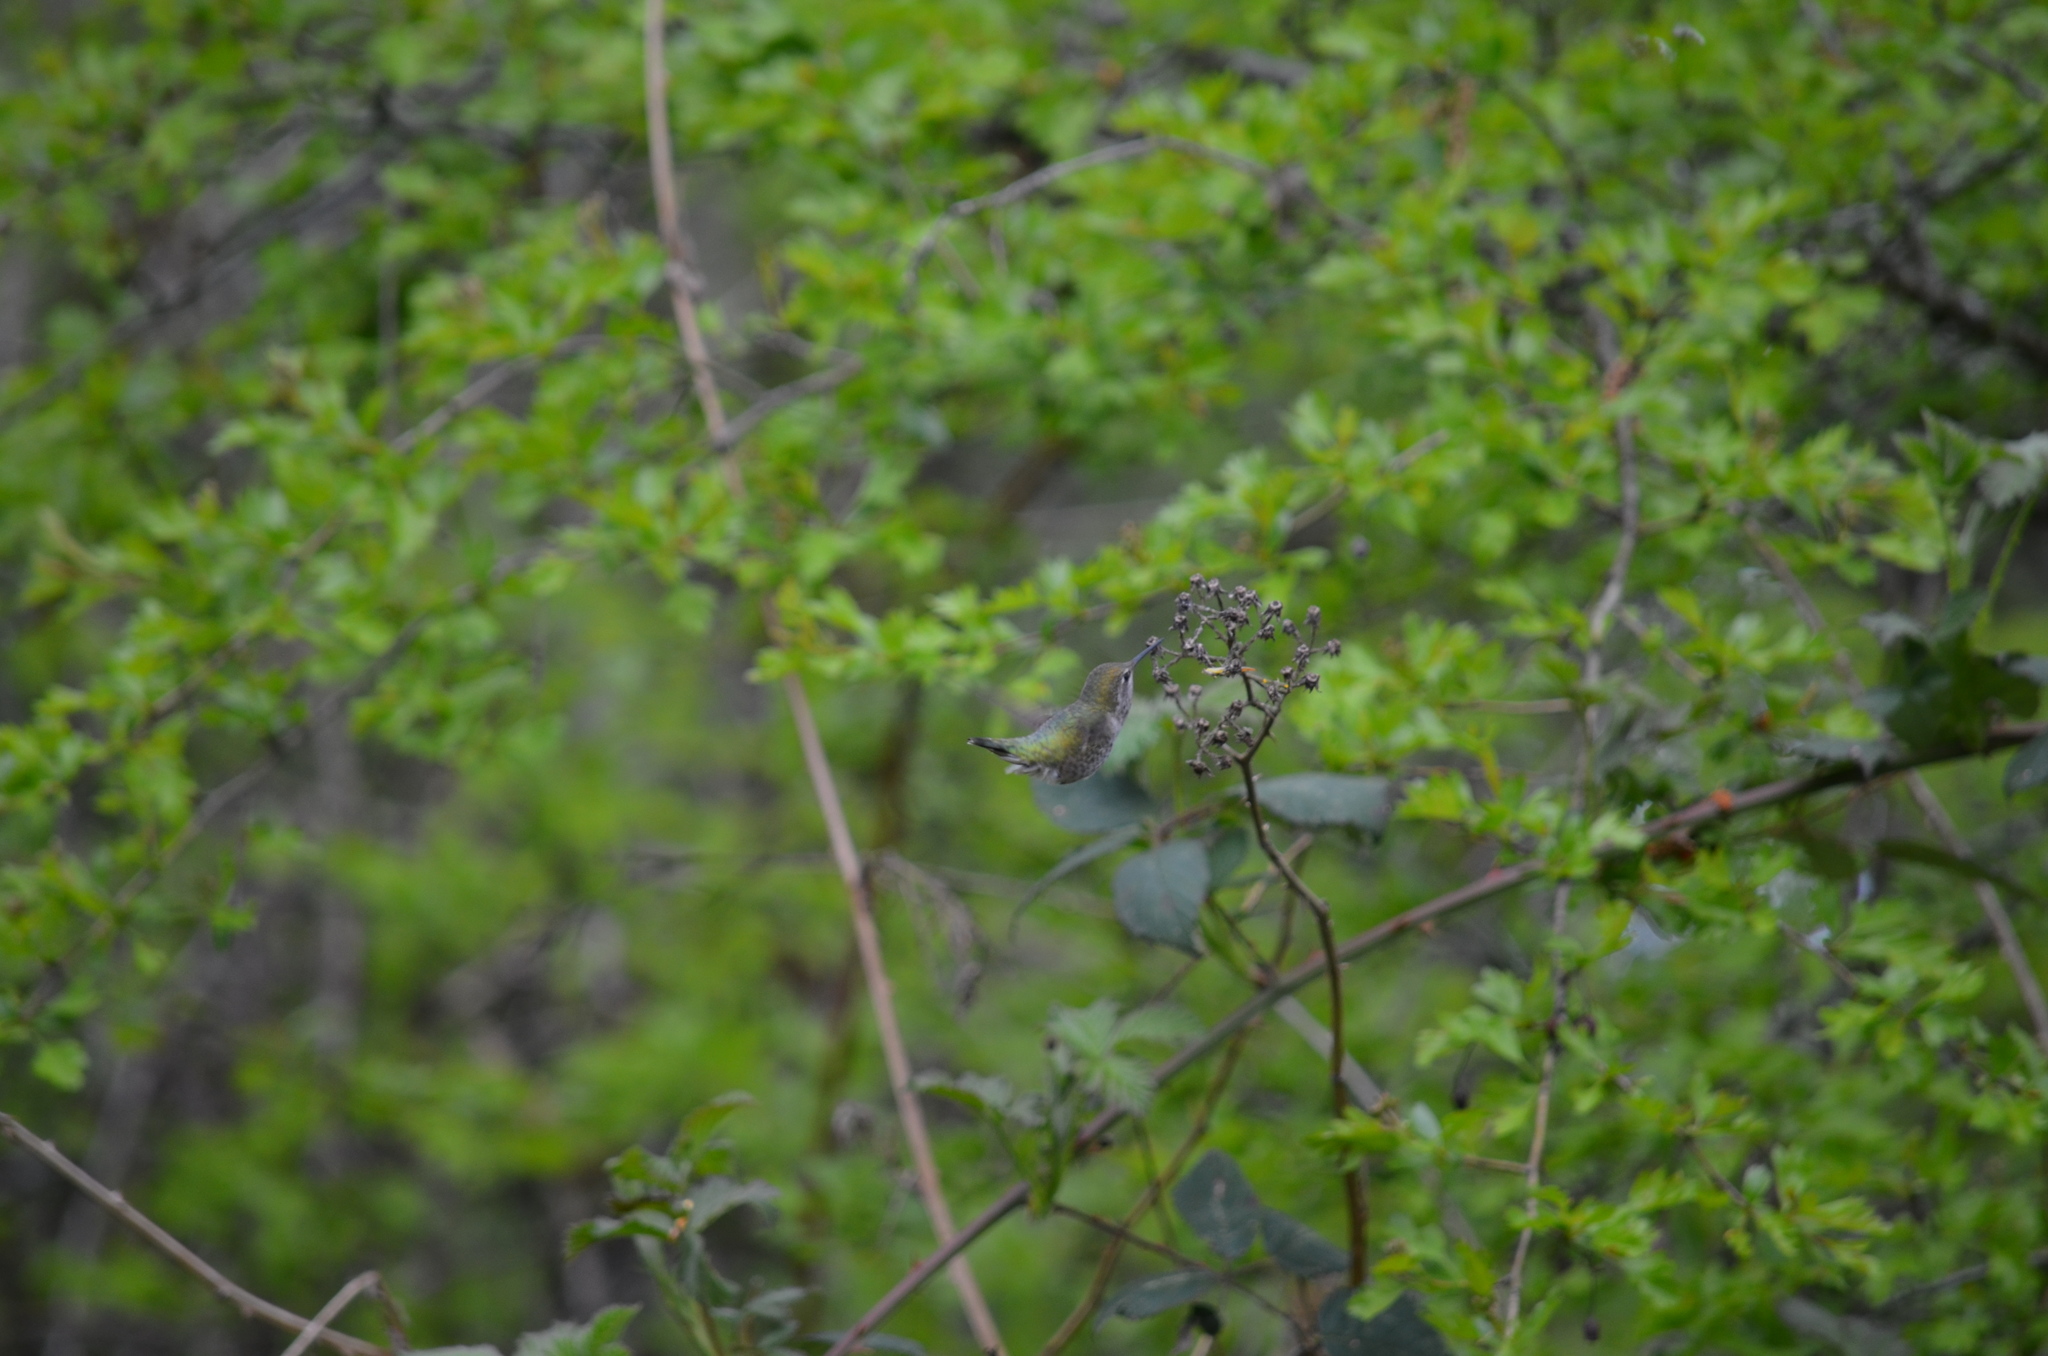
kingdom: Animalia
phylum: Chordata
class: Aves
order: Apodiformes
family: Trochilidae
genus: Calypte
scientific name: Calypte anna
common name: Anna's hummingbird
